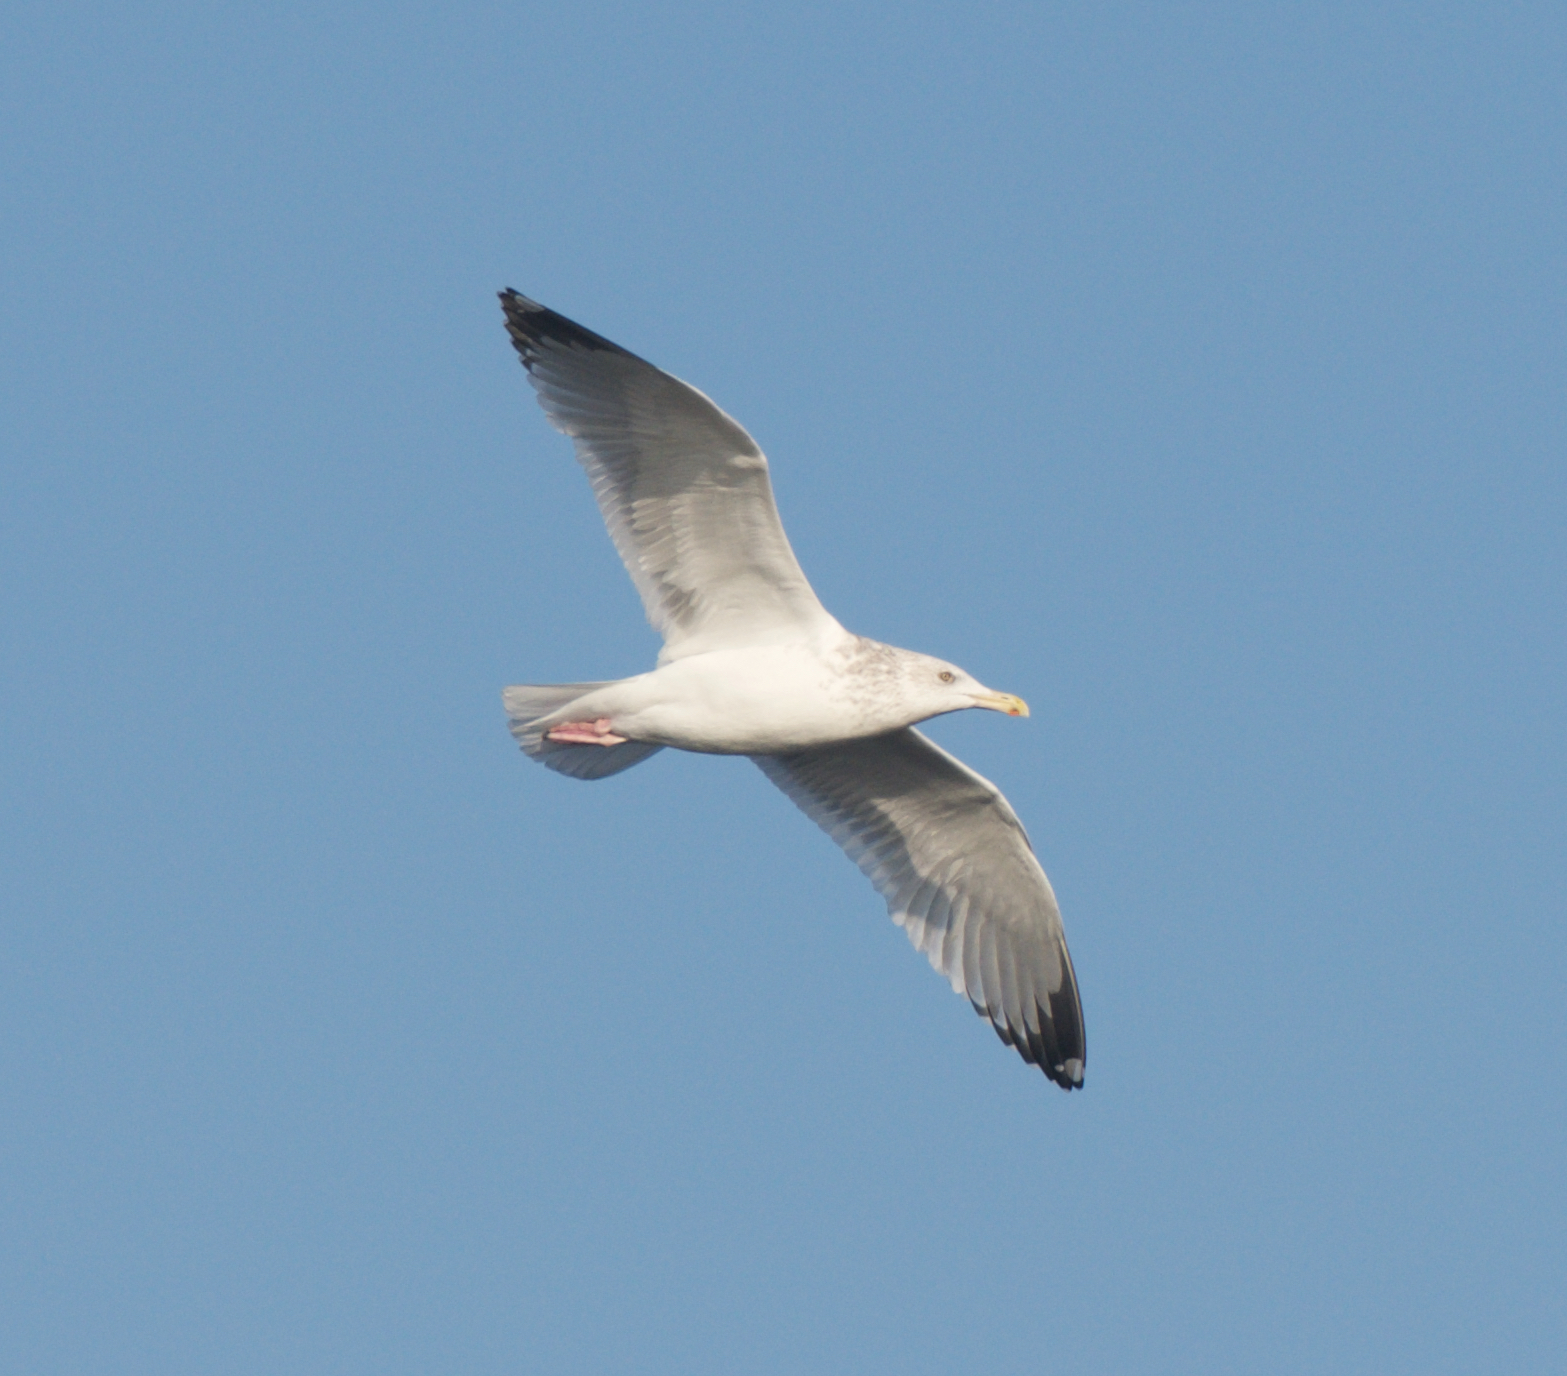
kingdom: Animalia
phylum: Chordata
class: Aves
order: Charadriiformes
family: Laridae
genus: Larus
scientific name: Larus argentatus
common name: Herring gull
